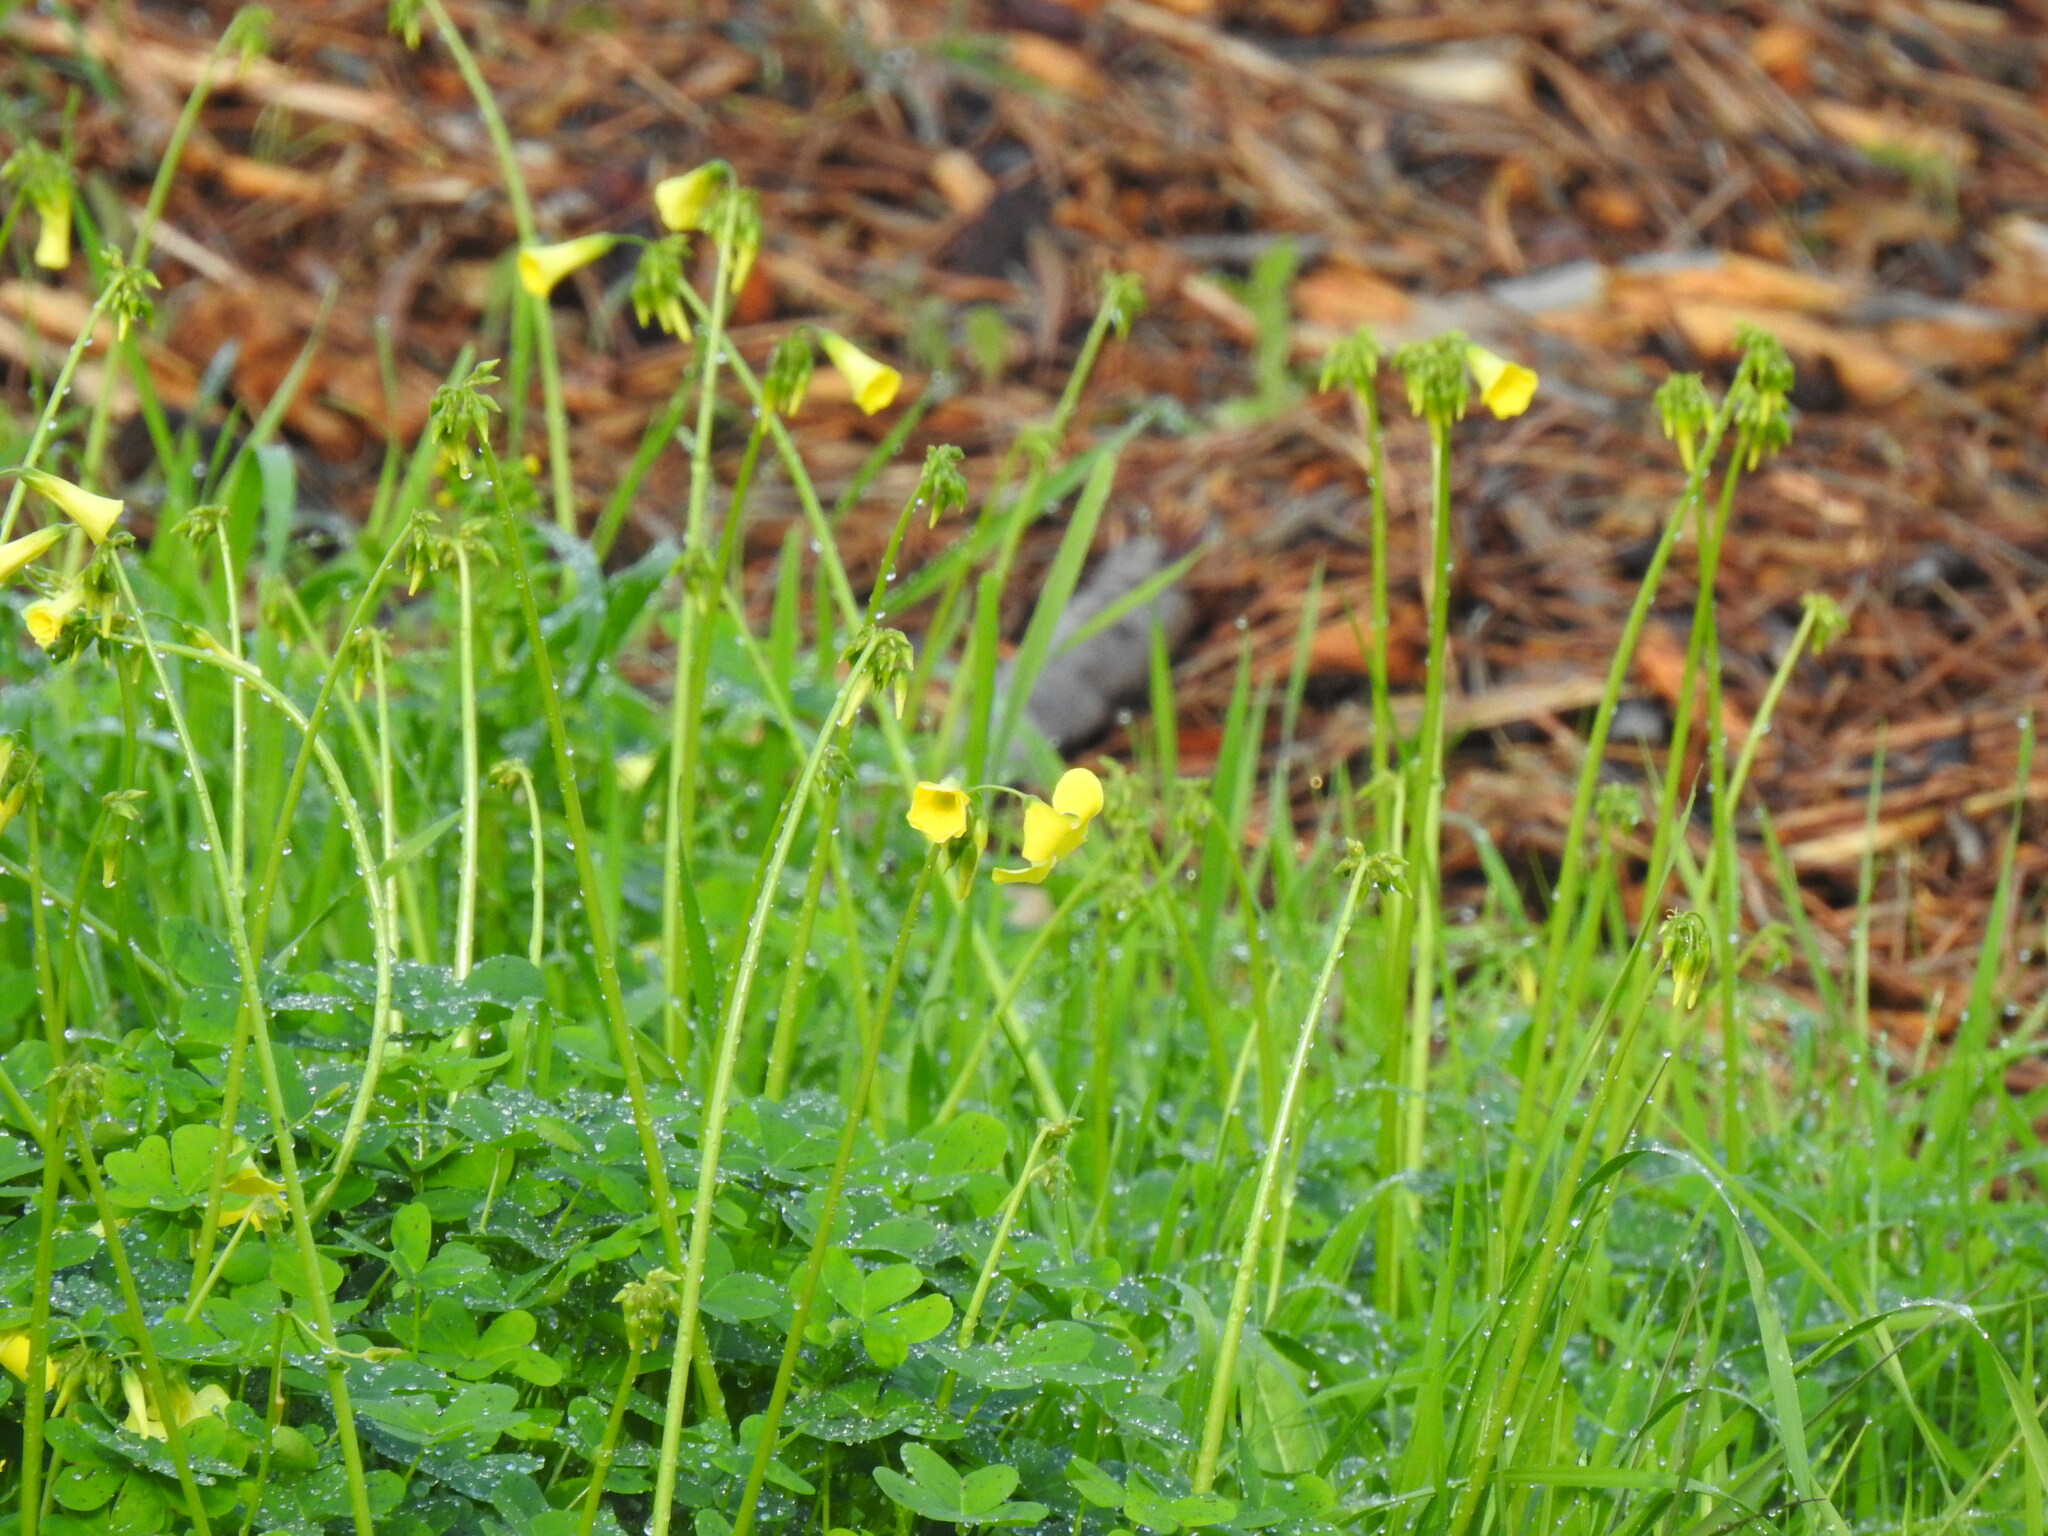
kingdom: Plantae
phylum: Tracheophyta
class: Magnoliopsida
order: Oxalidales
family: Oxalidaceae
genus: Oxalis
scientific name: Oxalis pes-caprae
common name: Bermuda-buttercup
